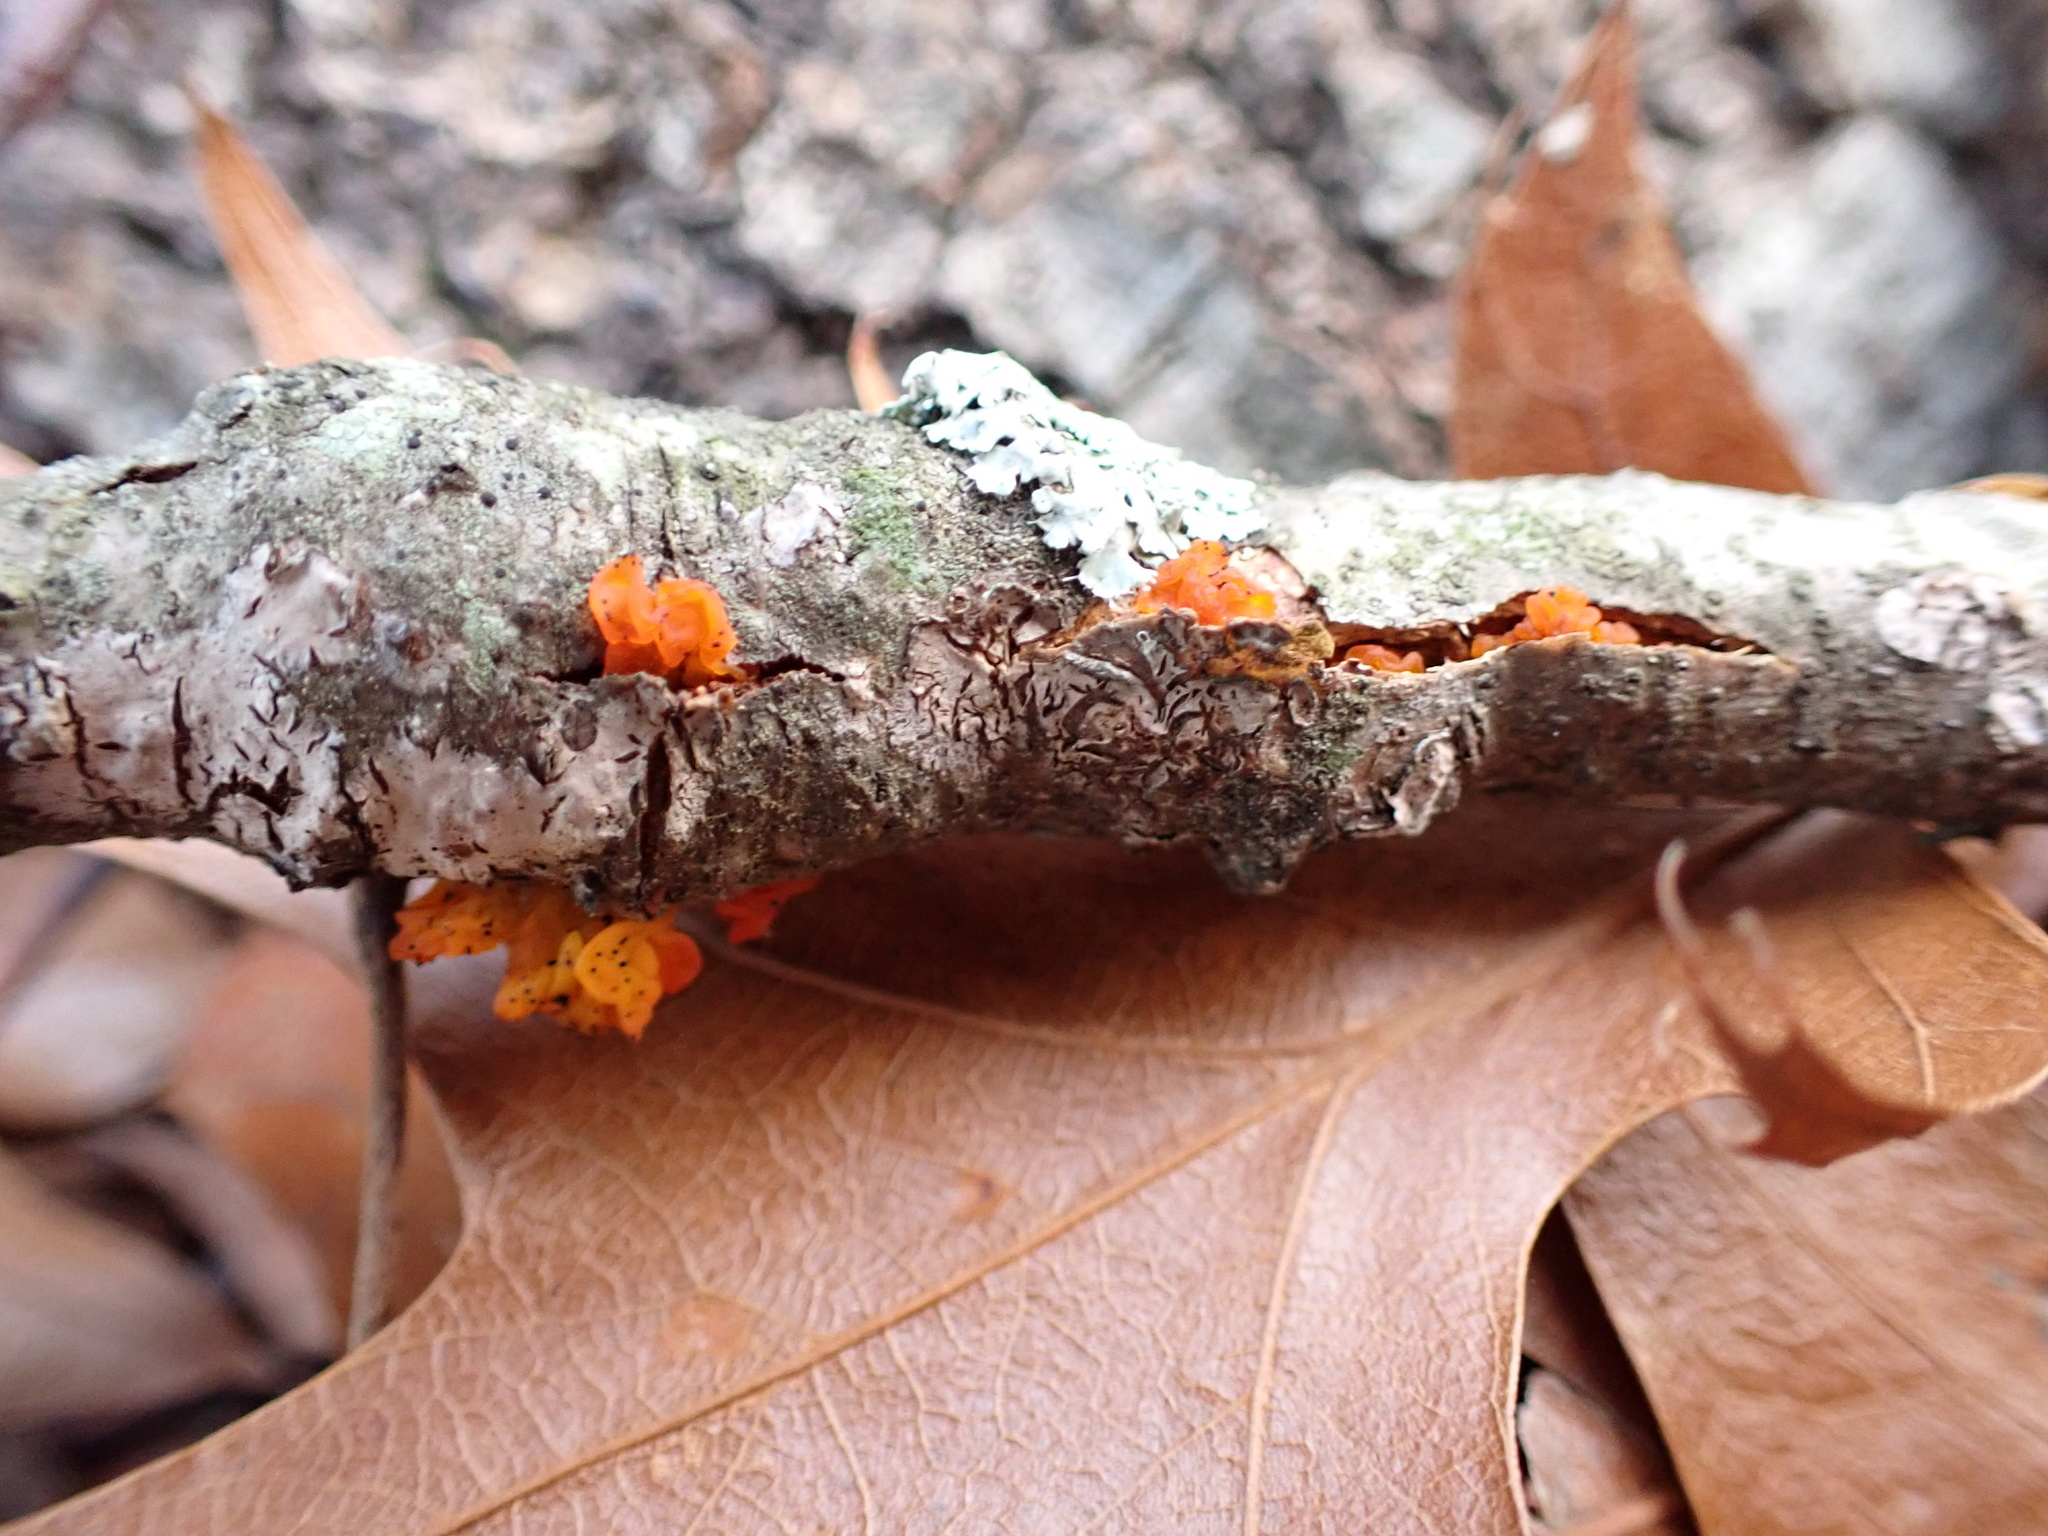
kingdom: Fungi
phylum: Basidiomycota
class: Tremellomycetes
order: Tremellales
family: Tremellaceae
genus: Tremella
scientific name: Tremella mesenterica
